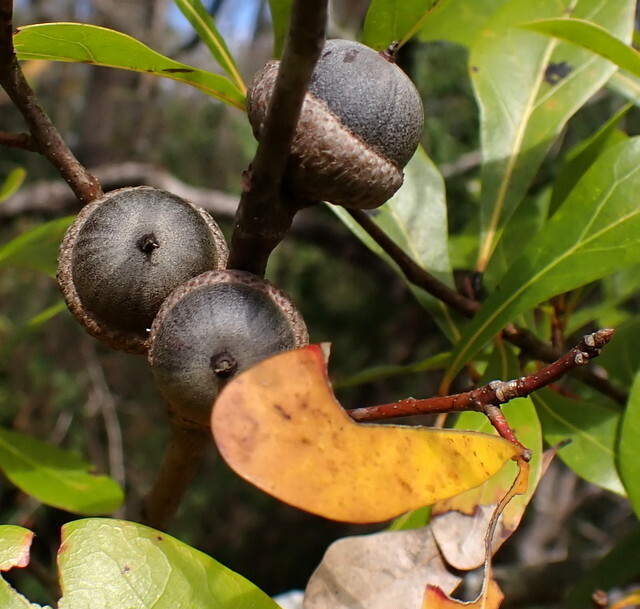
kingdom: Plantae
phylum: Tracheophyta
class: Magnoliopsida
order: Fagales
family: Fagaceae
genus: Quercus
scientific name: Quercus laurifolia
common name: Swamp laurel oak
